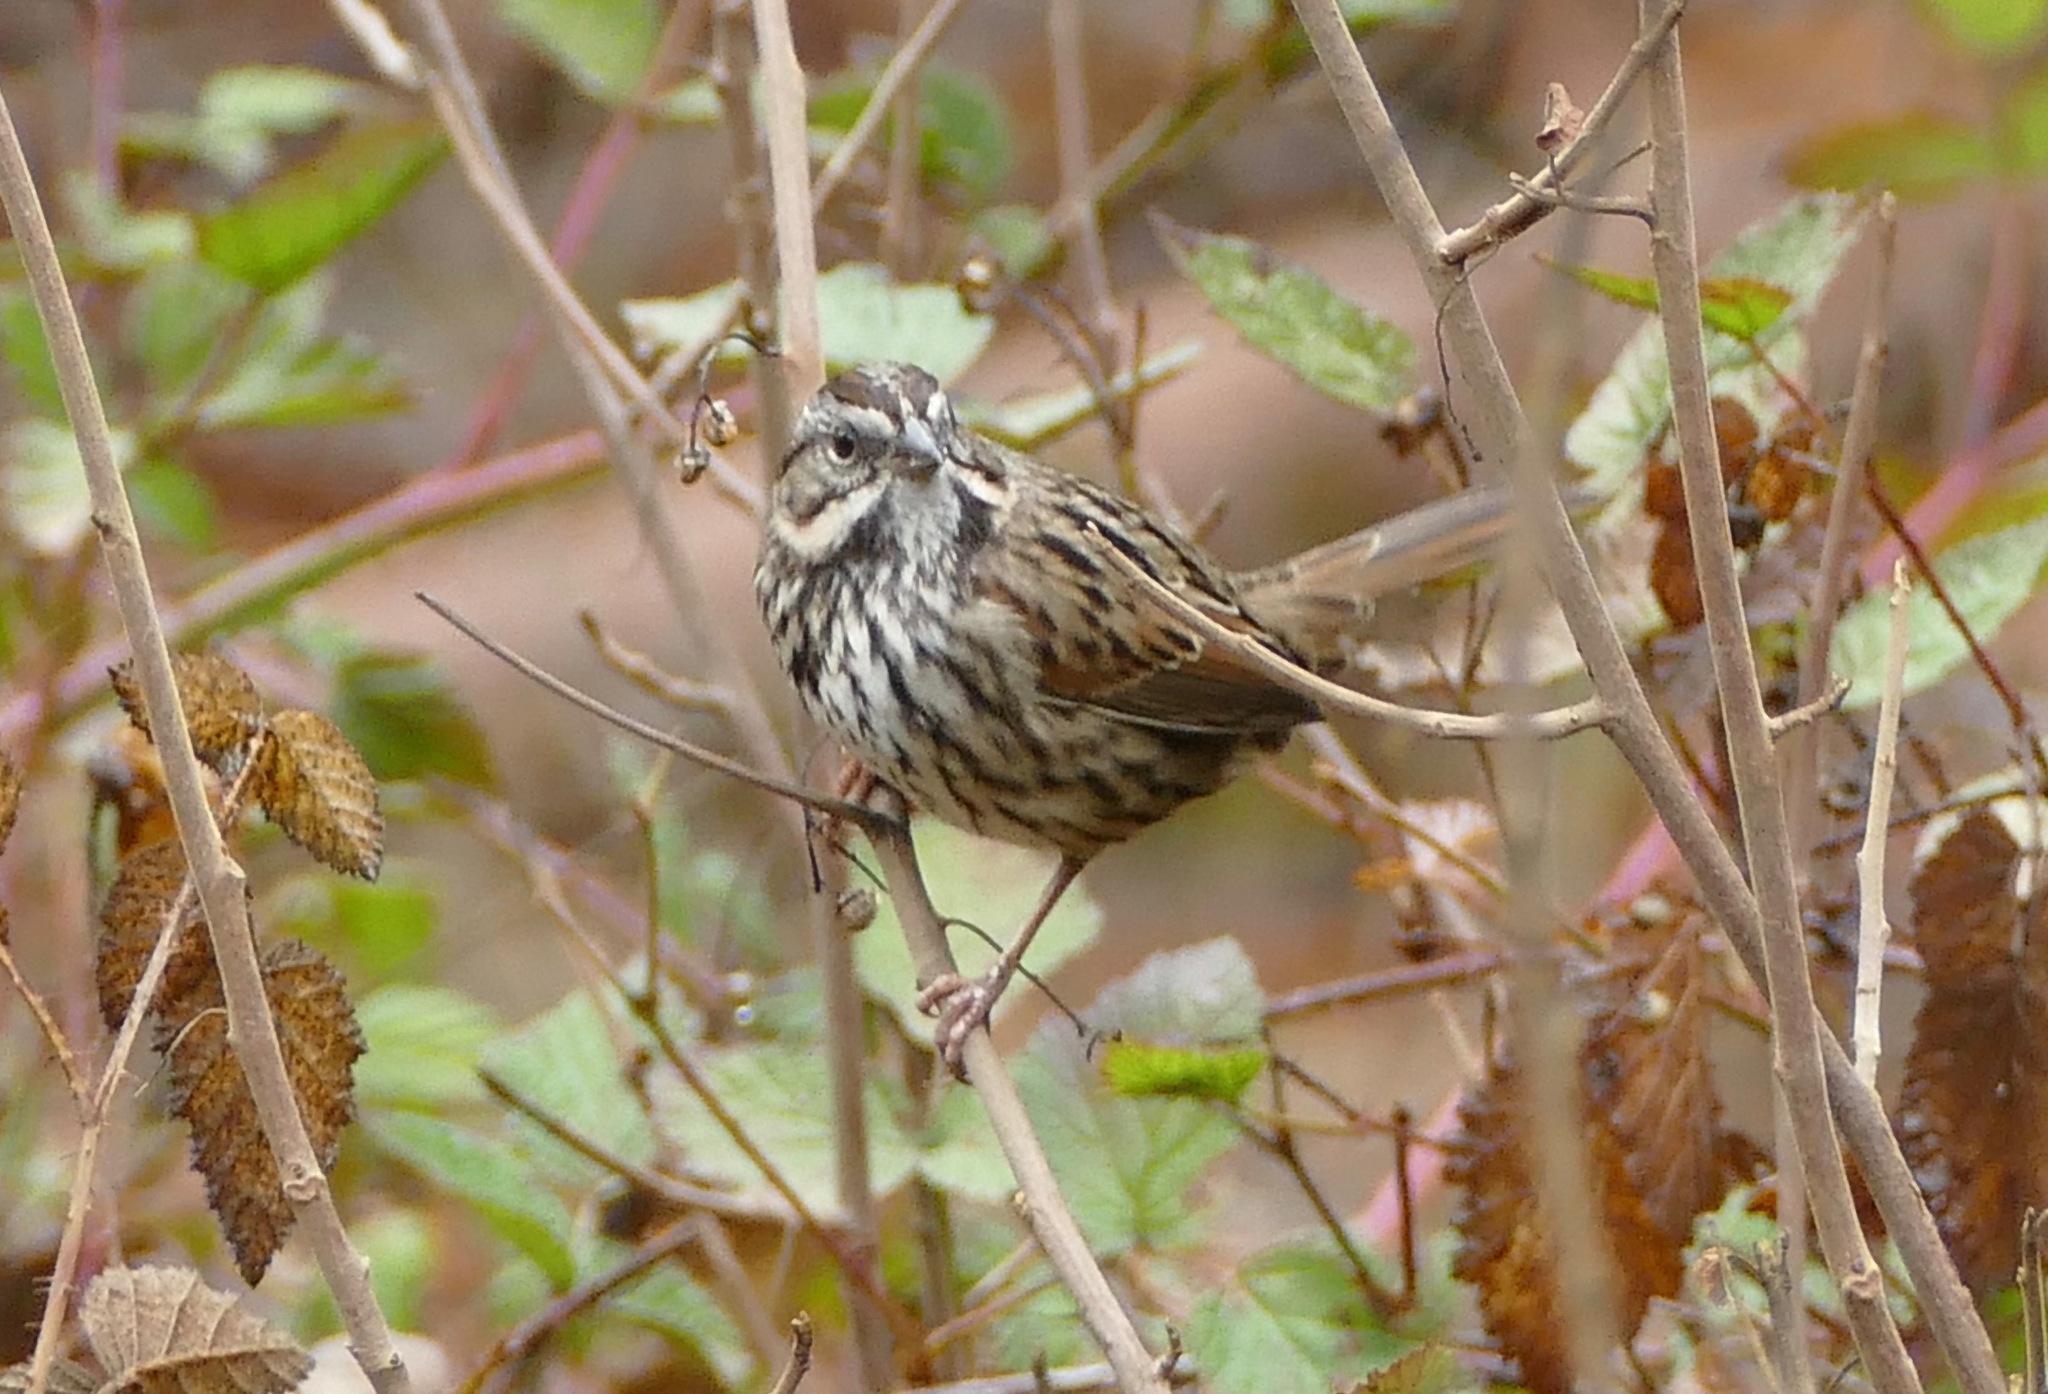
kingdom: Animalia
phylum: Chordata
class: Aves
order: Passeriformes
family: Passerellidae
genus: Melospiza
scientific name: Melospiza melodia
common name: Song sparrow
